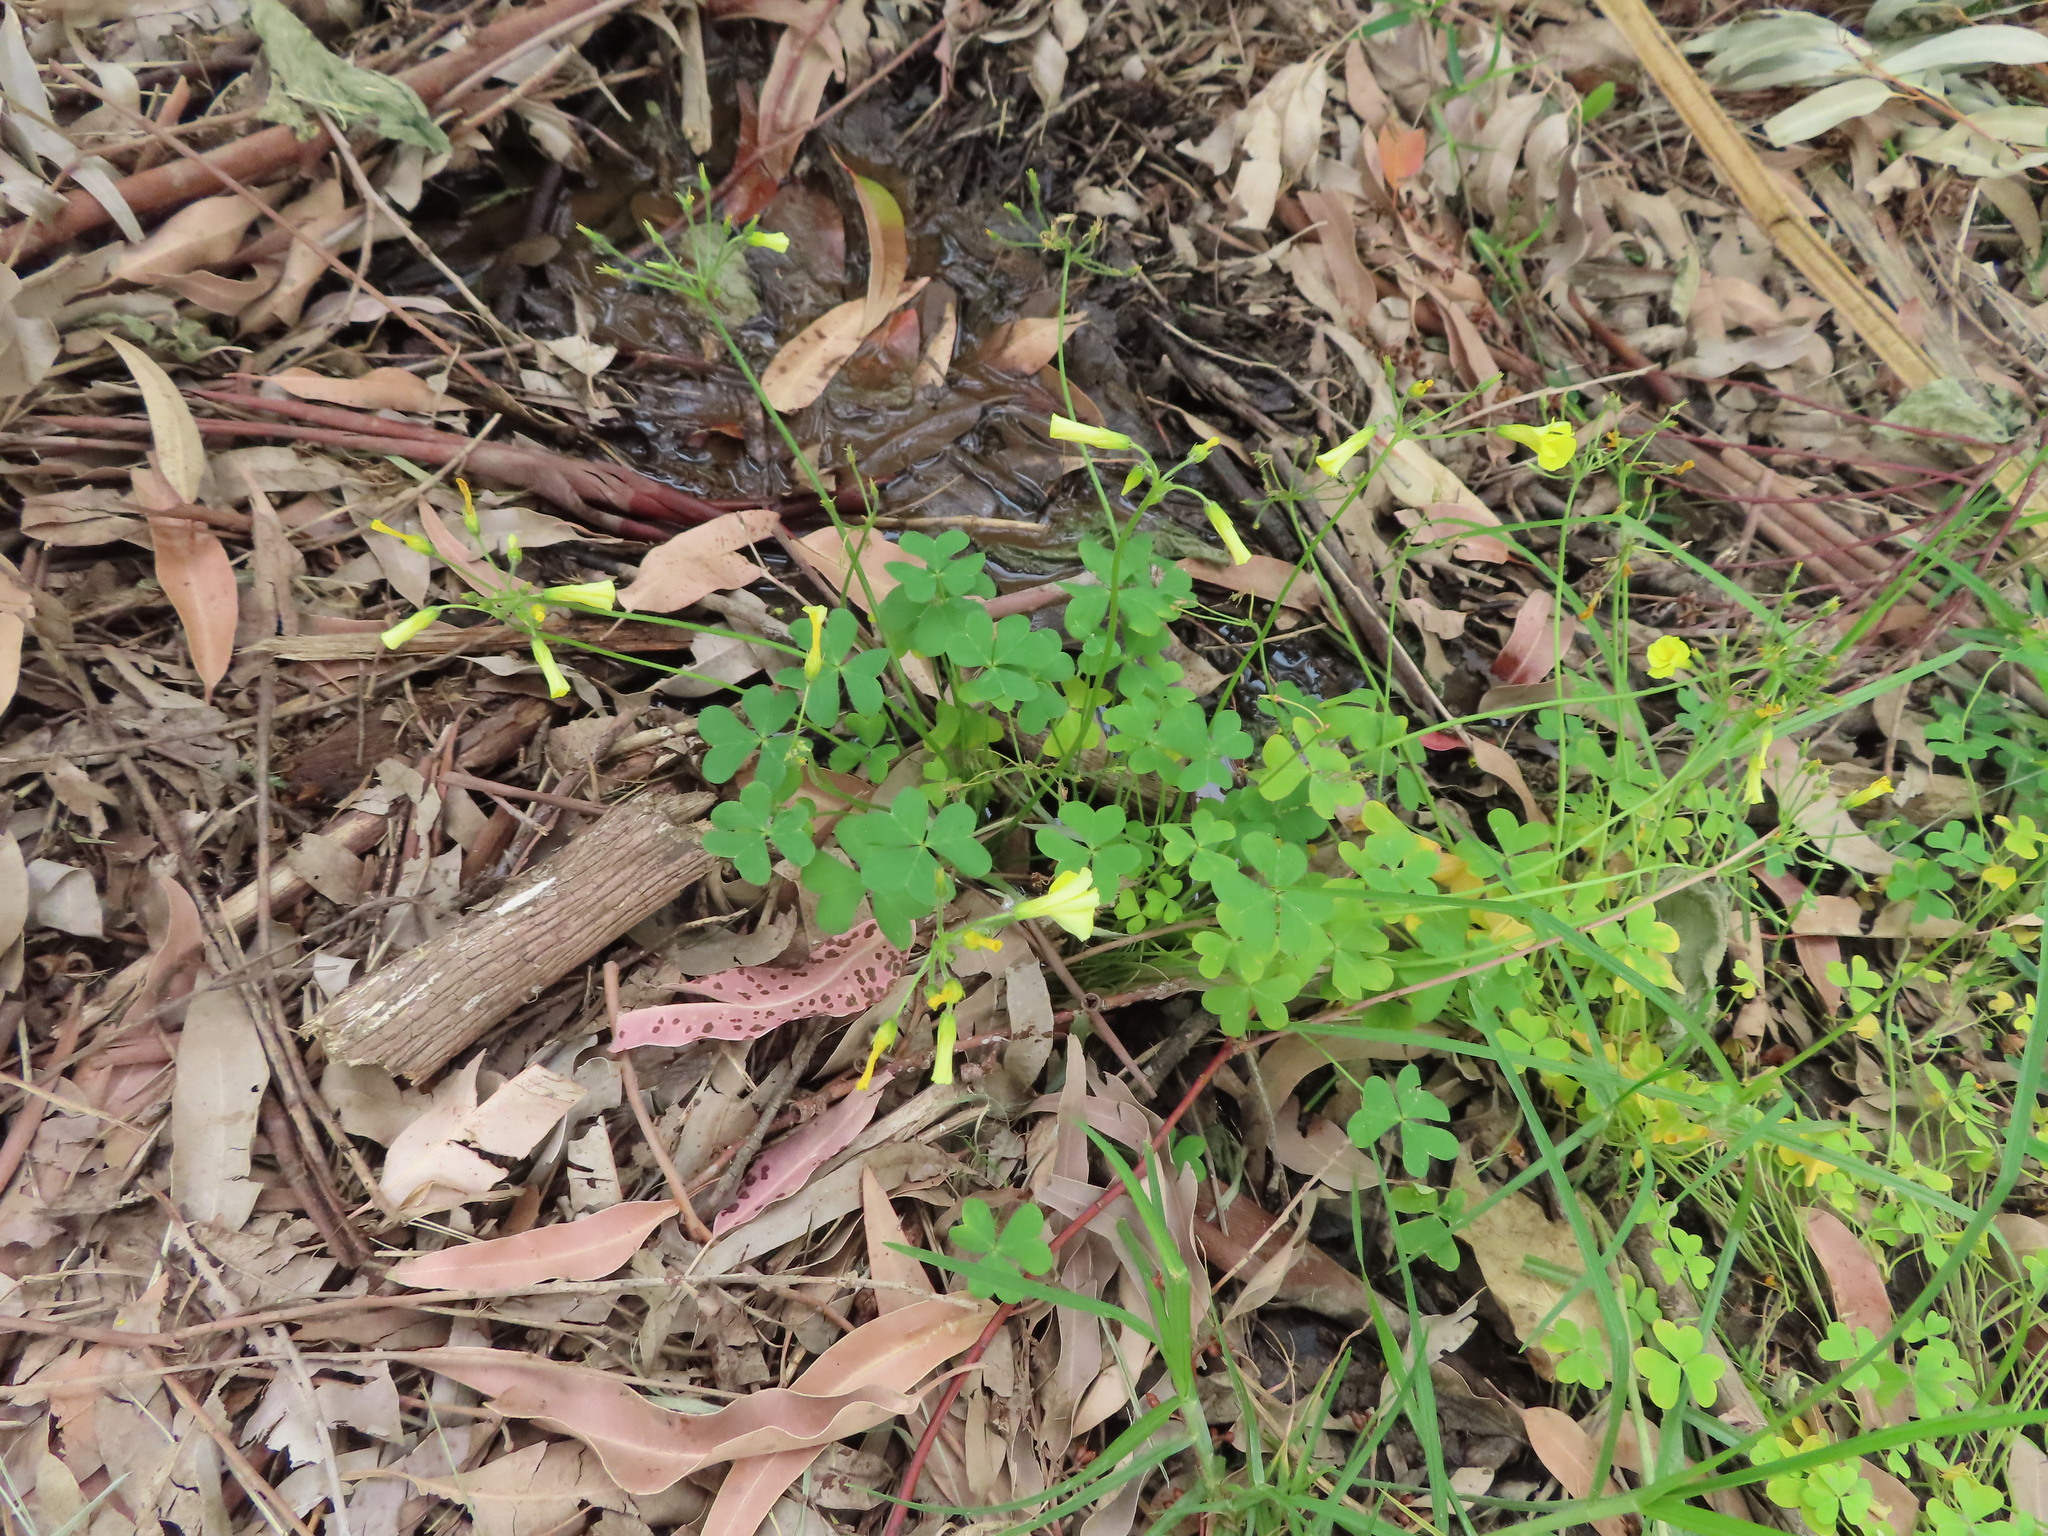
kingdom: Plantae
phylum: Tracheophyta
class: Magnoliopsida
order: Oxalidales
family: Oxalidaceae
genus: Oxalis
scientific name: Oxalis pes-caprae
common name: Bermuda-buttercup
